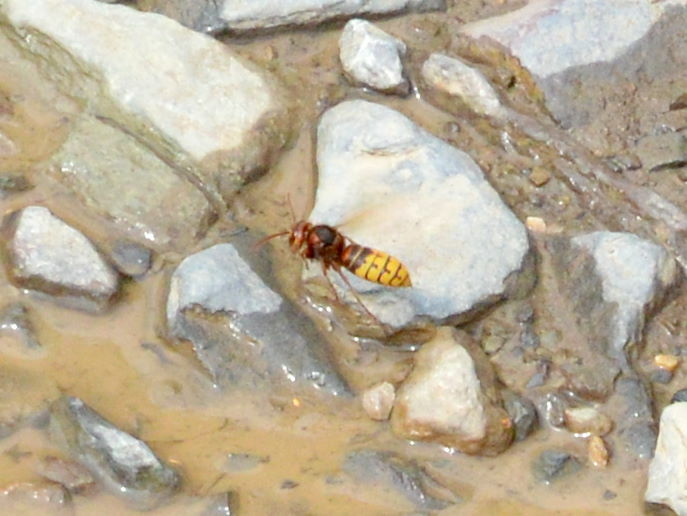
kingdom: Animalia
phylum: Arthropoda
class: Insecta
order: Hymenoptera
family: Vespidae
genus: Vespa
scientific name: Vespa crabro
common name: Hornet
